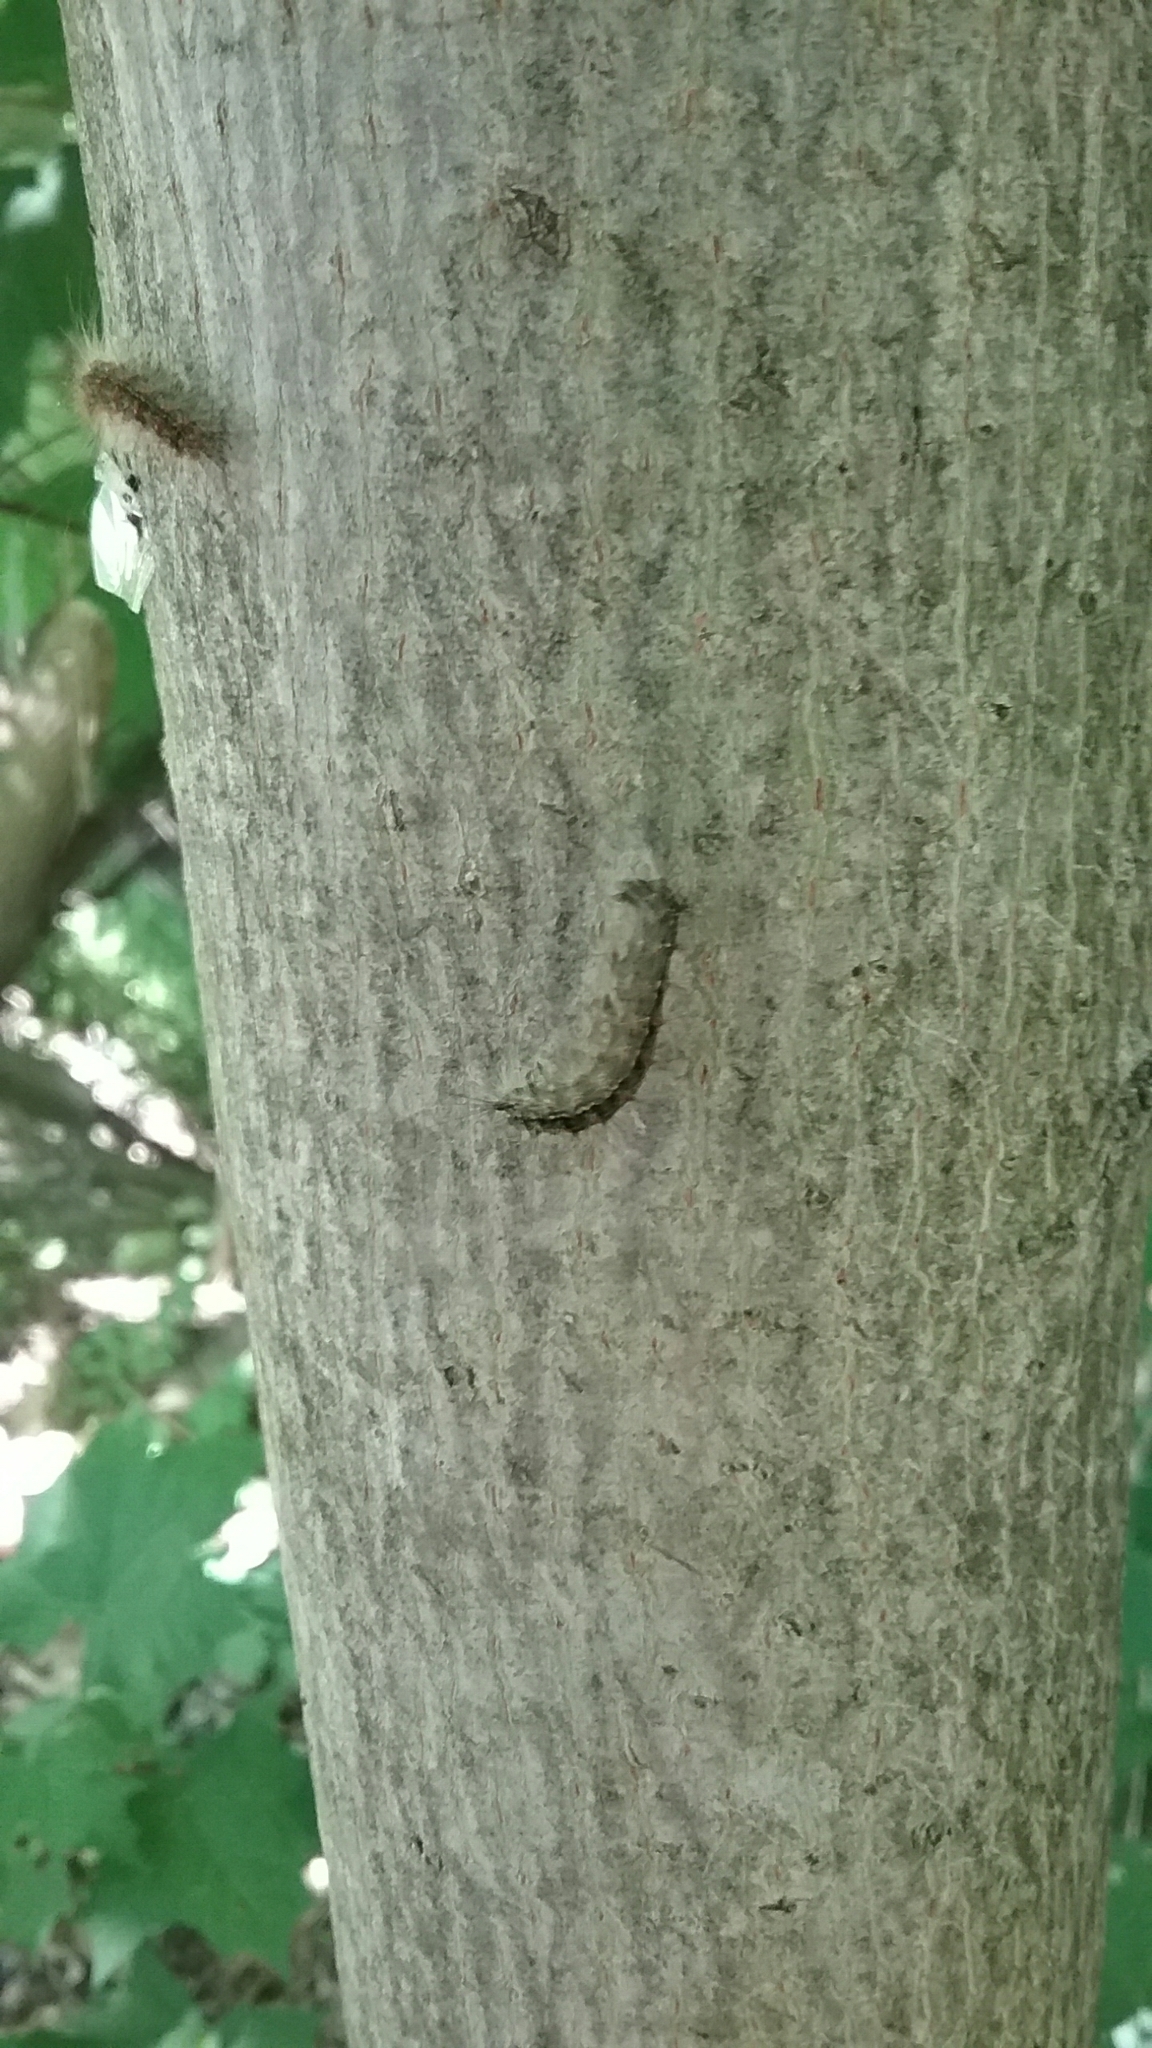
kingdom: Animalia
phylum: Arthropoda
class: Insecta
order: Lepidoptera
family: Erebidae
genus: Lymantria
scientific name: Lymantria dispar
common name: Gypsy moth
